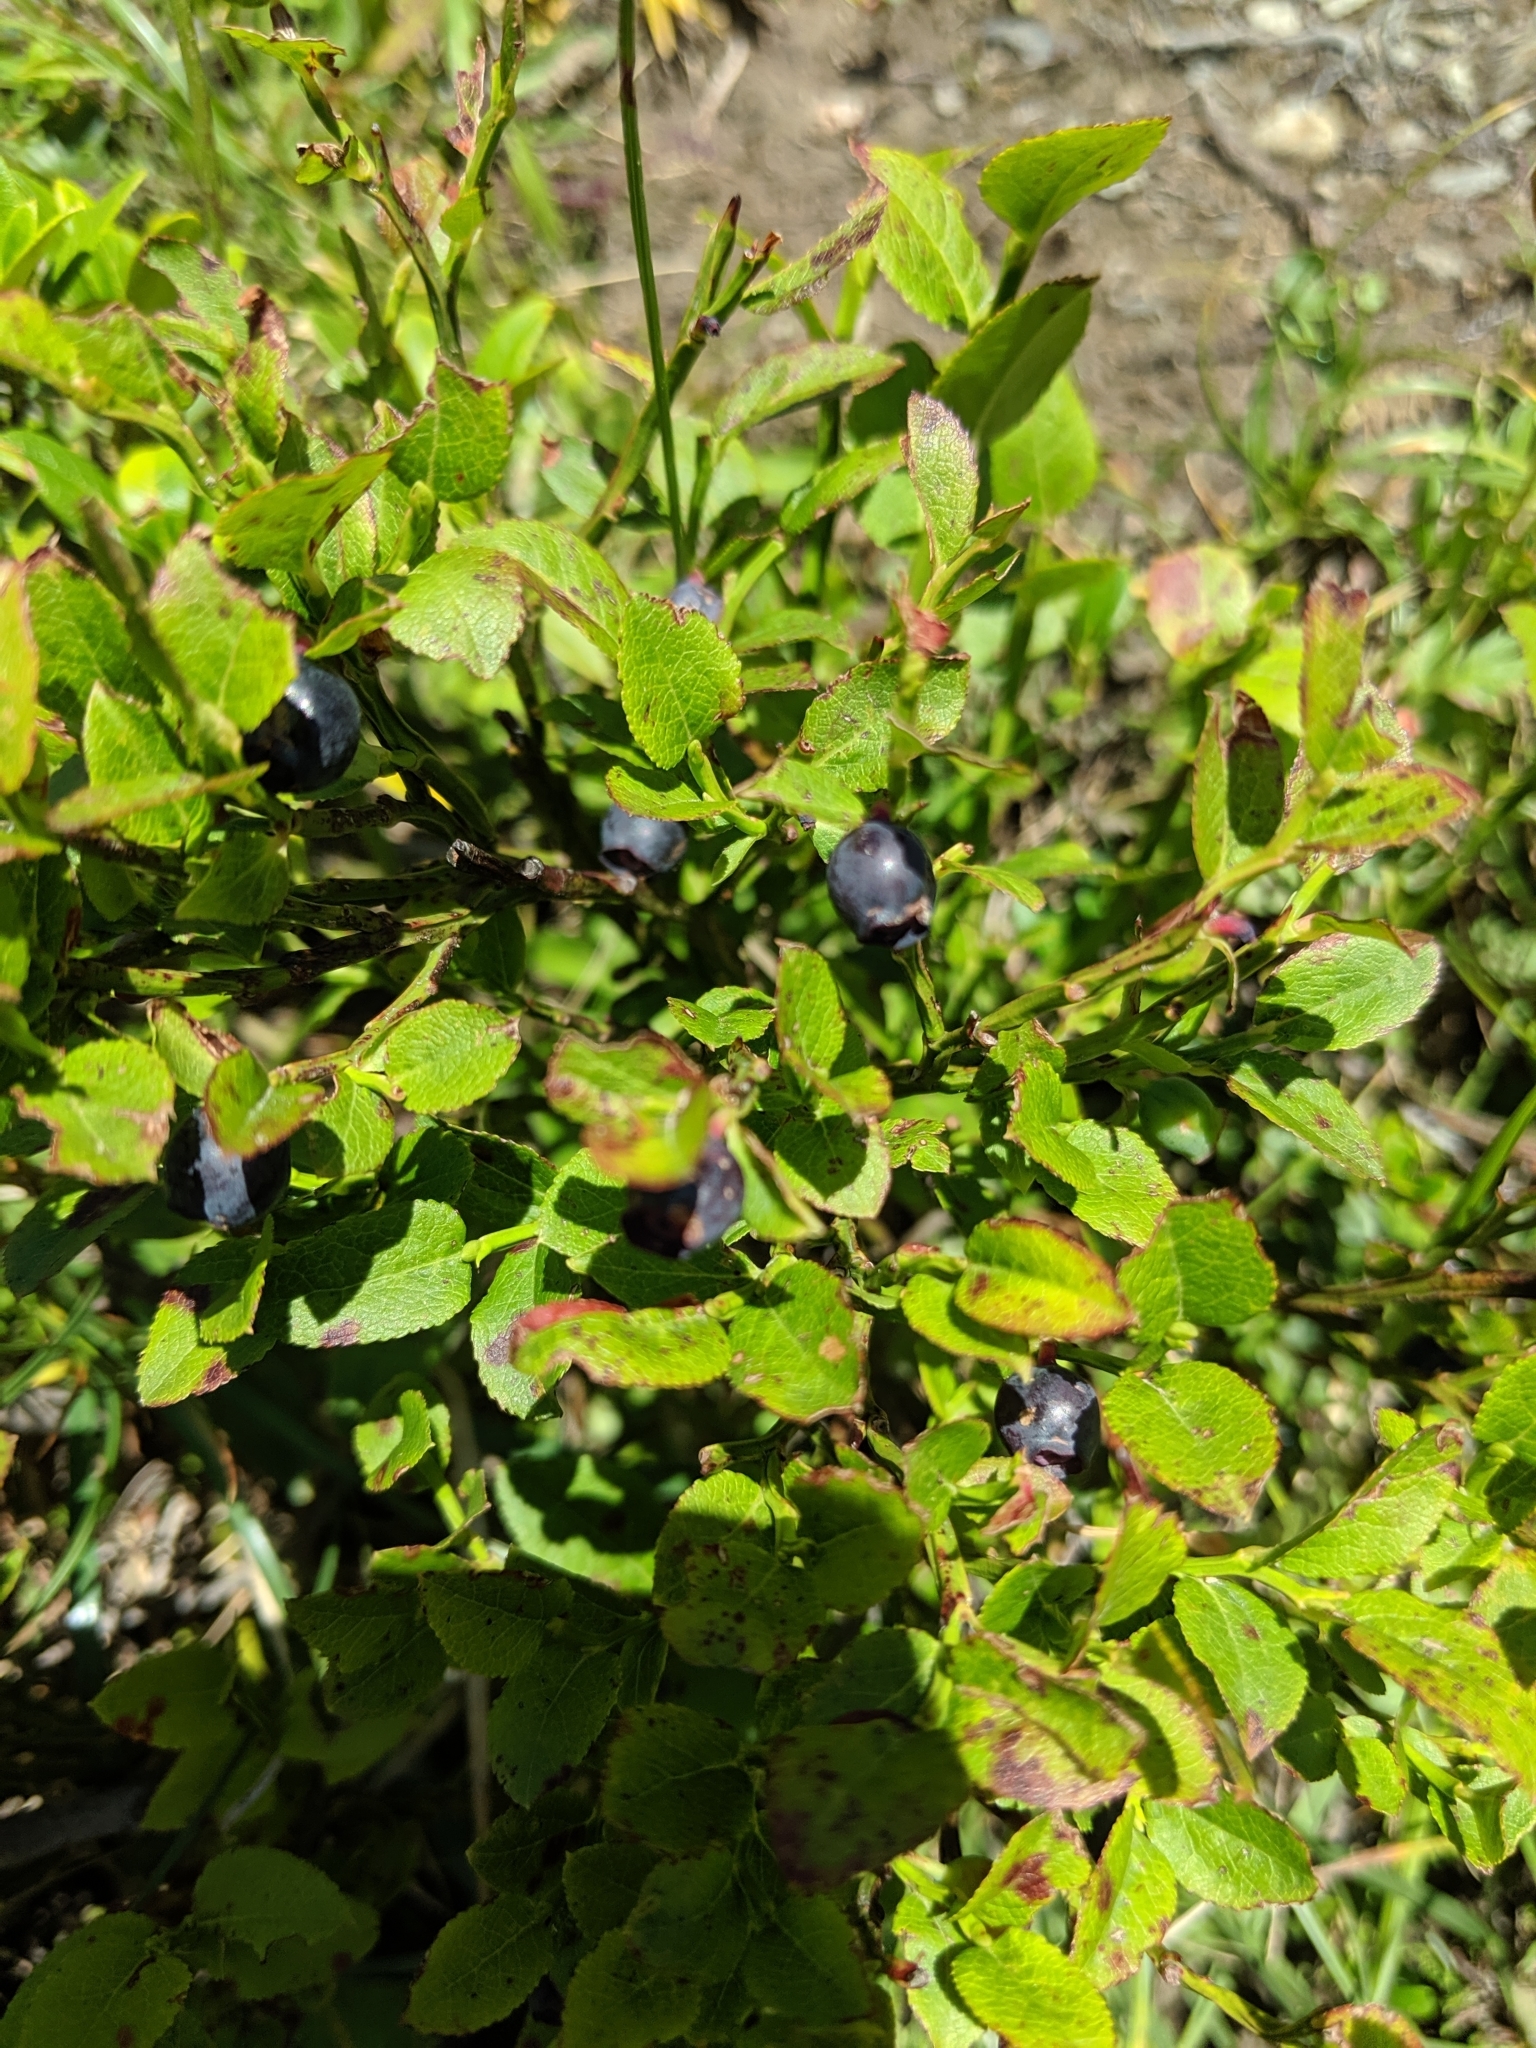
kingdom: Plantae
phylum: Tracheophyta
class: Magnoliopsida
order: Ericales
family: Ericaceae
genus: Vaccinium
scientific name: Vaccinium myrtillus
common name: Bilberry
